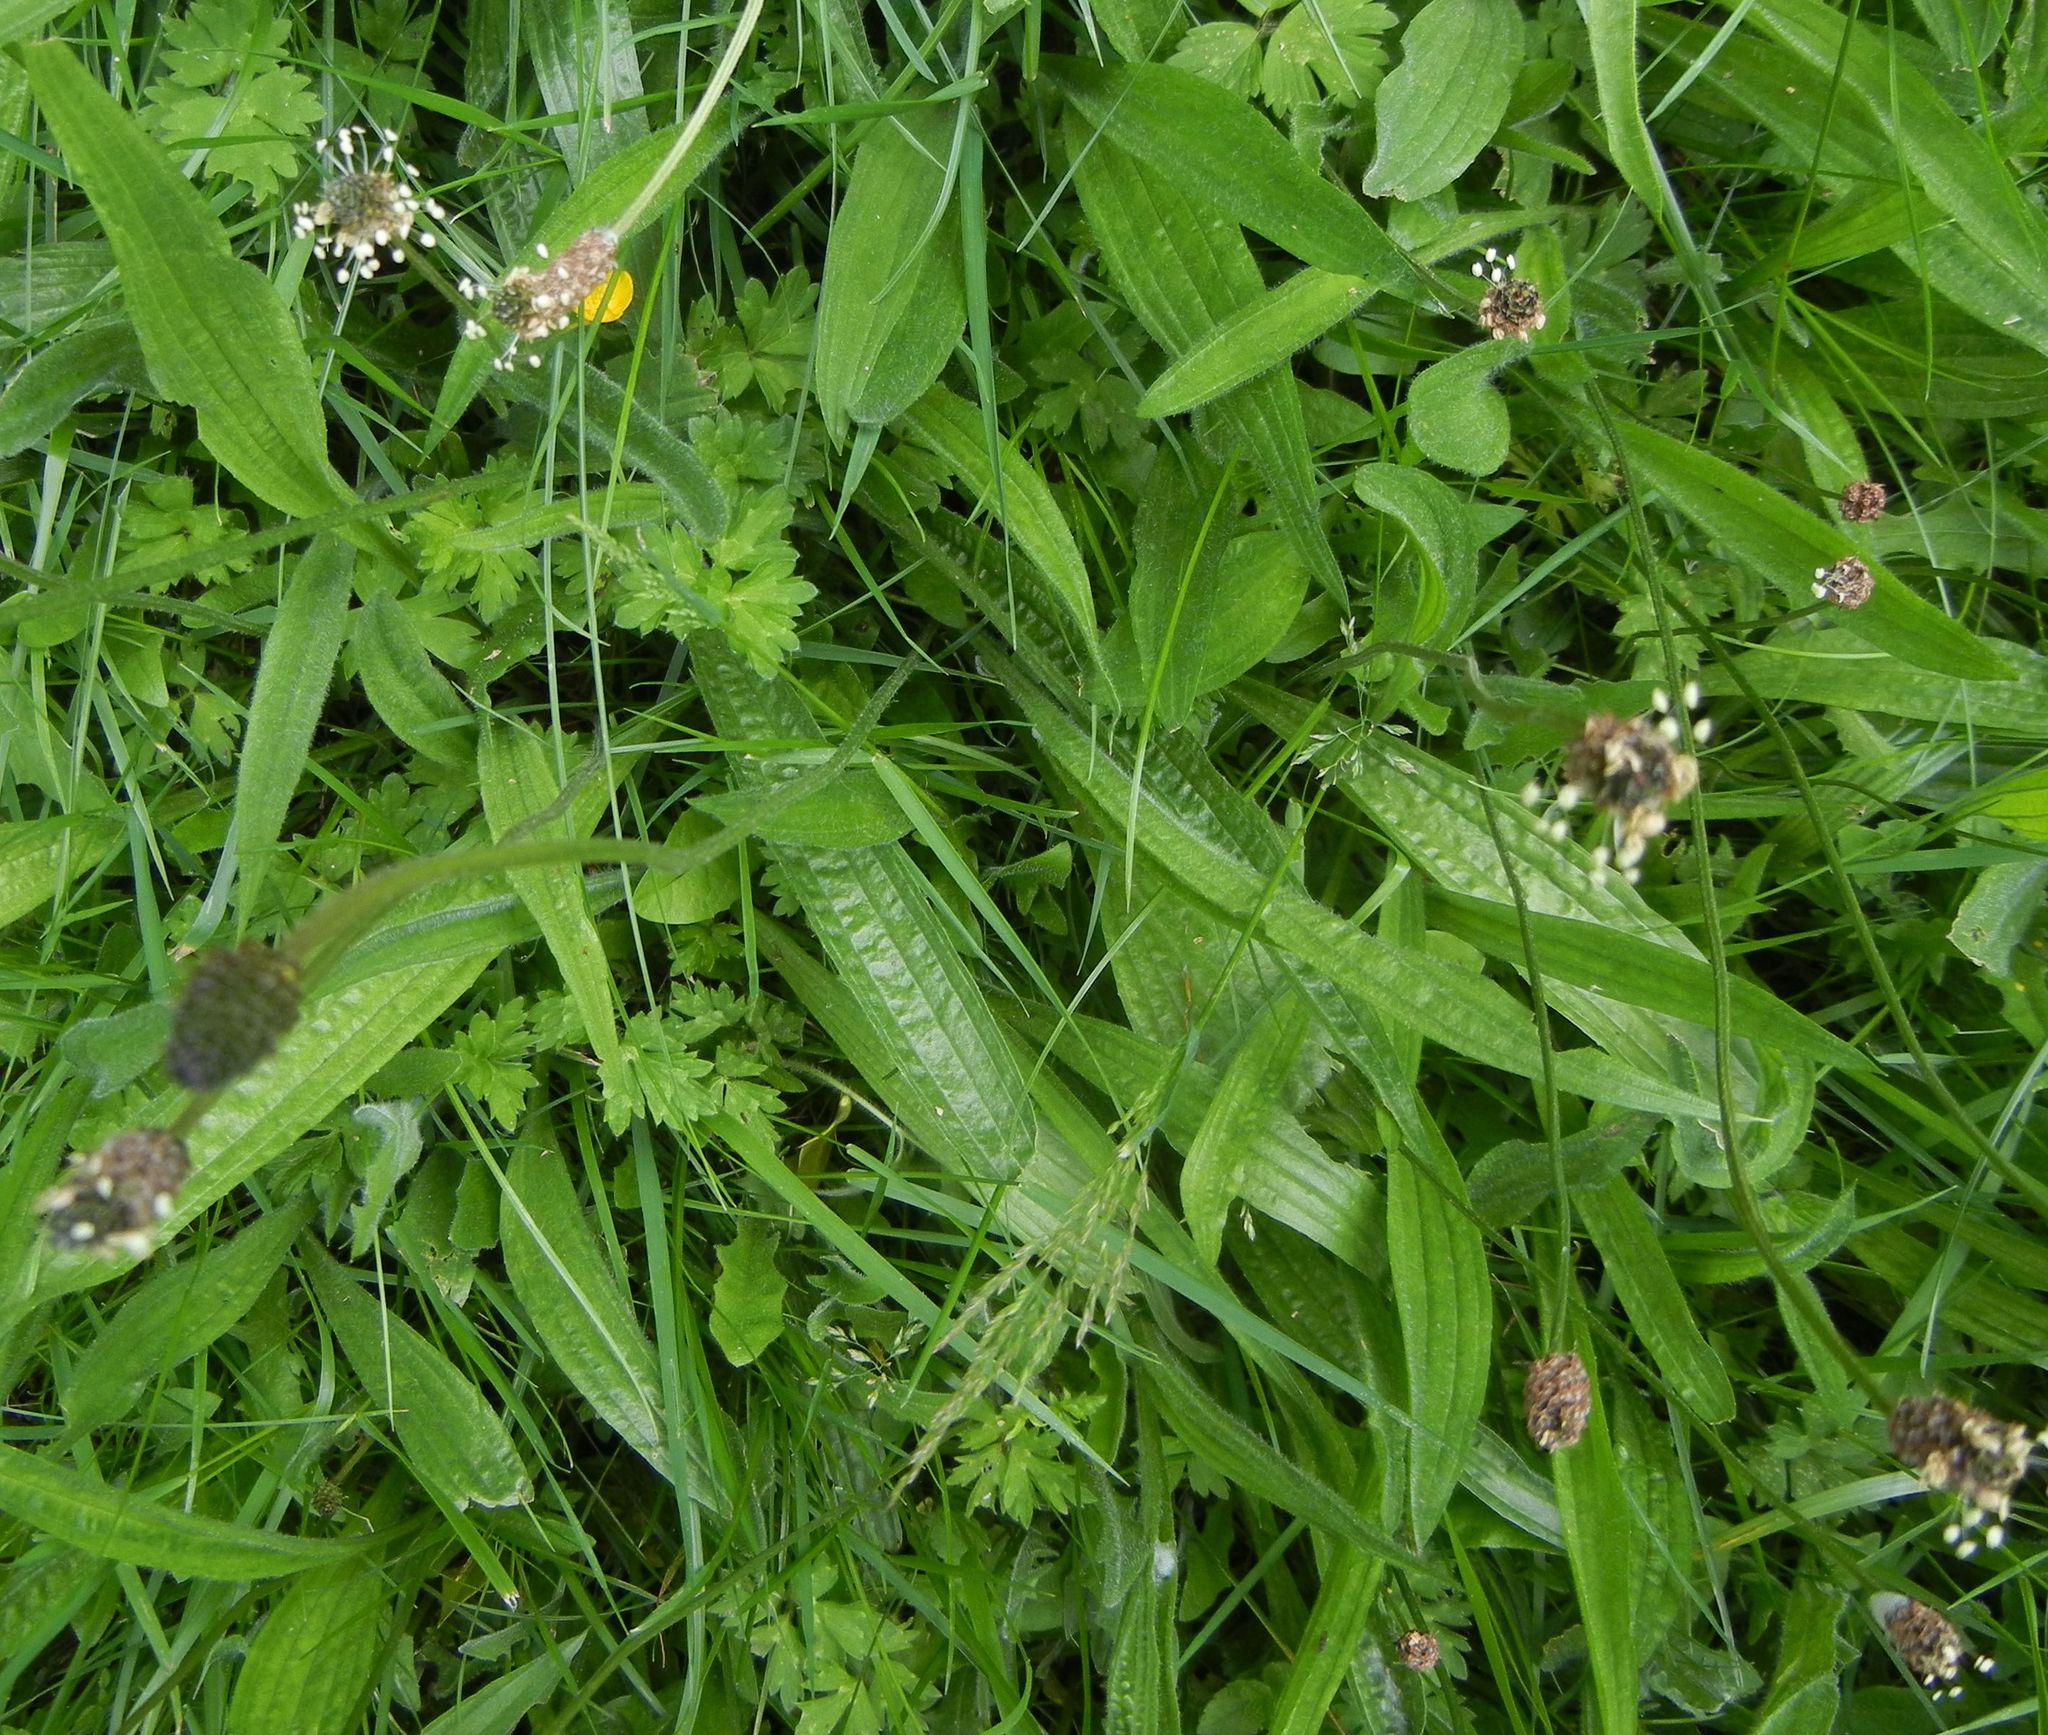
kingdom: Plantae
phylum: Tracheophyta
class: Magnoliopsida
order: Lamiales
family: Plantaginaceae
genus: Plantago
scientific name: Plantago lanceolata
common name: Ribwort plantain
